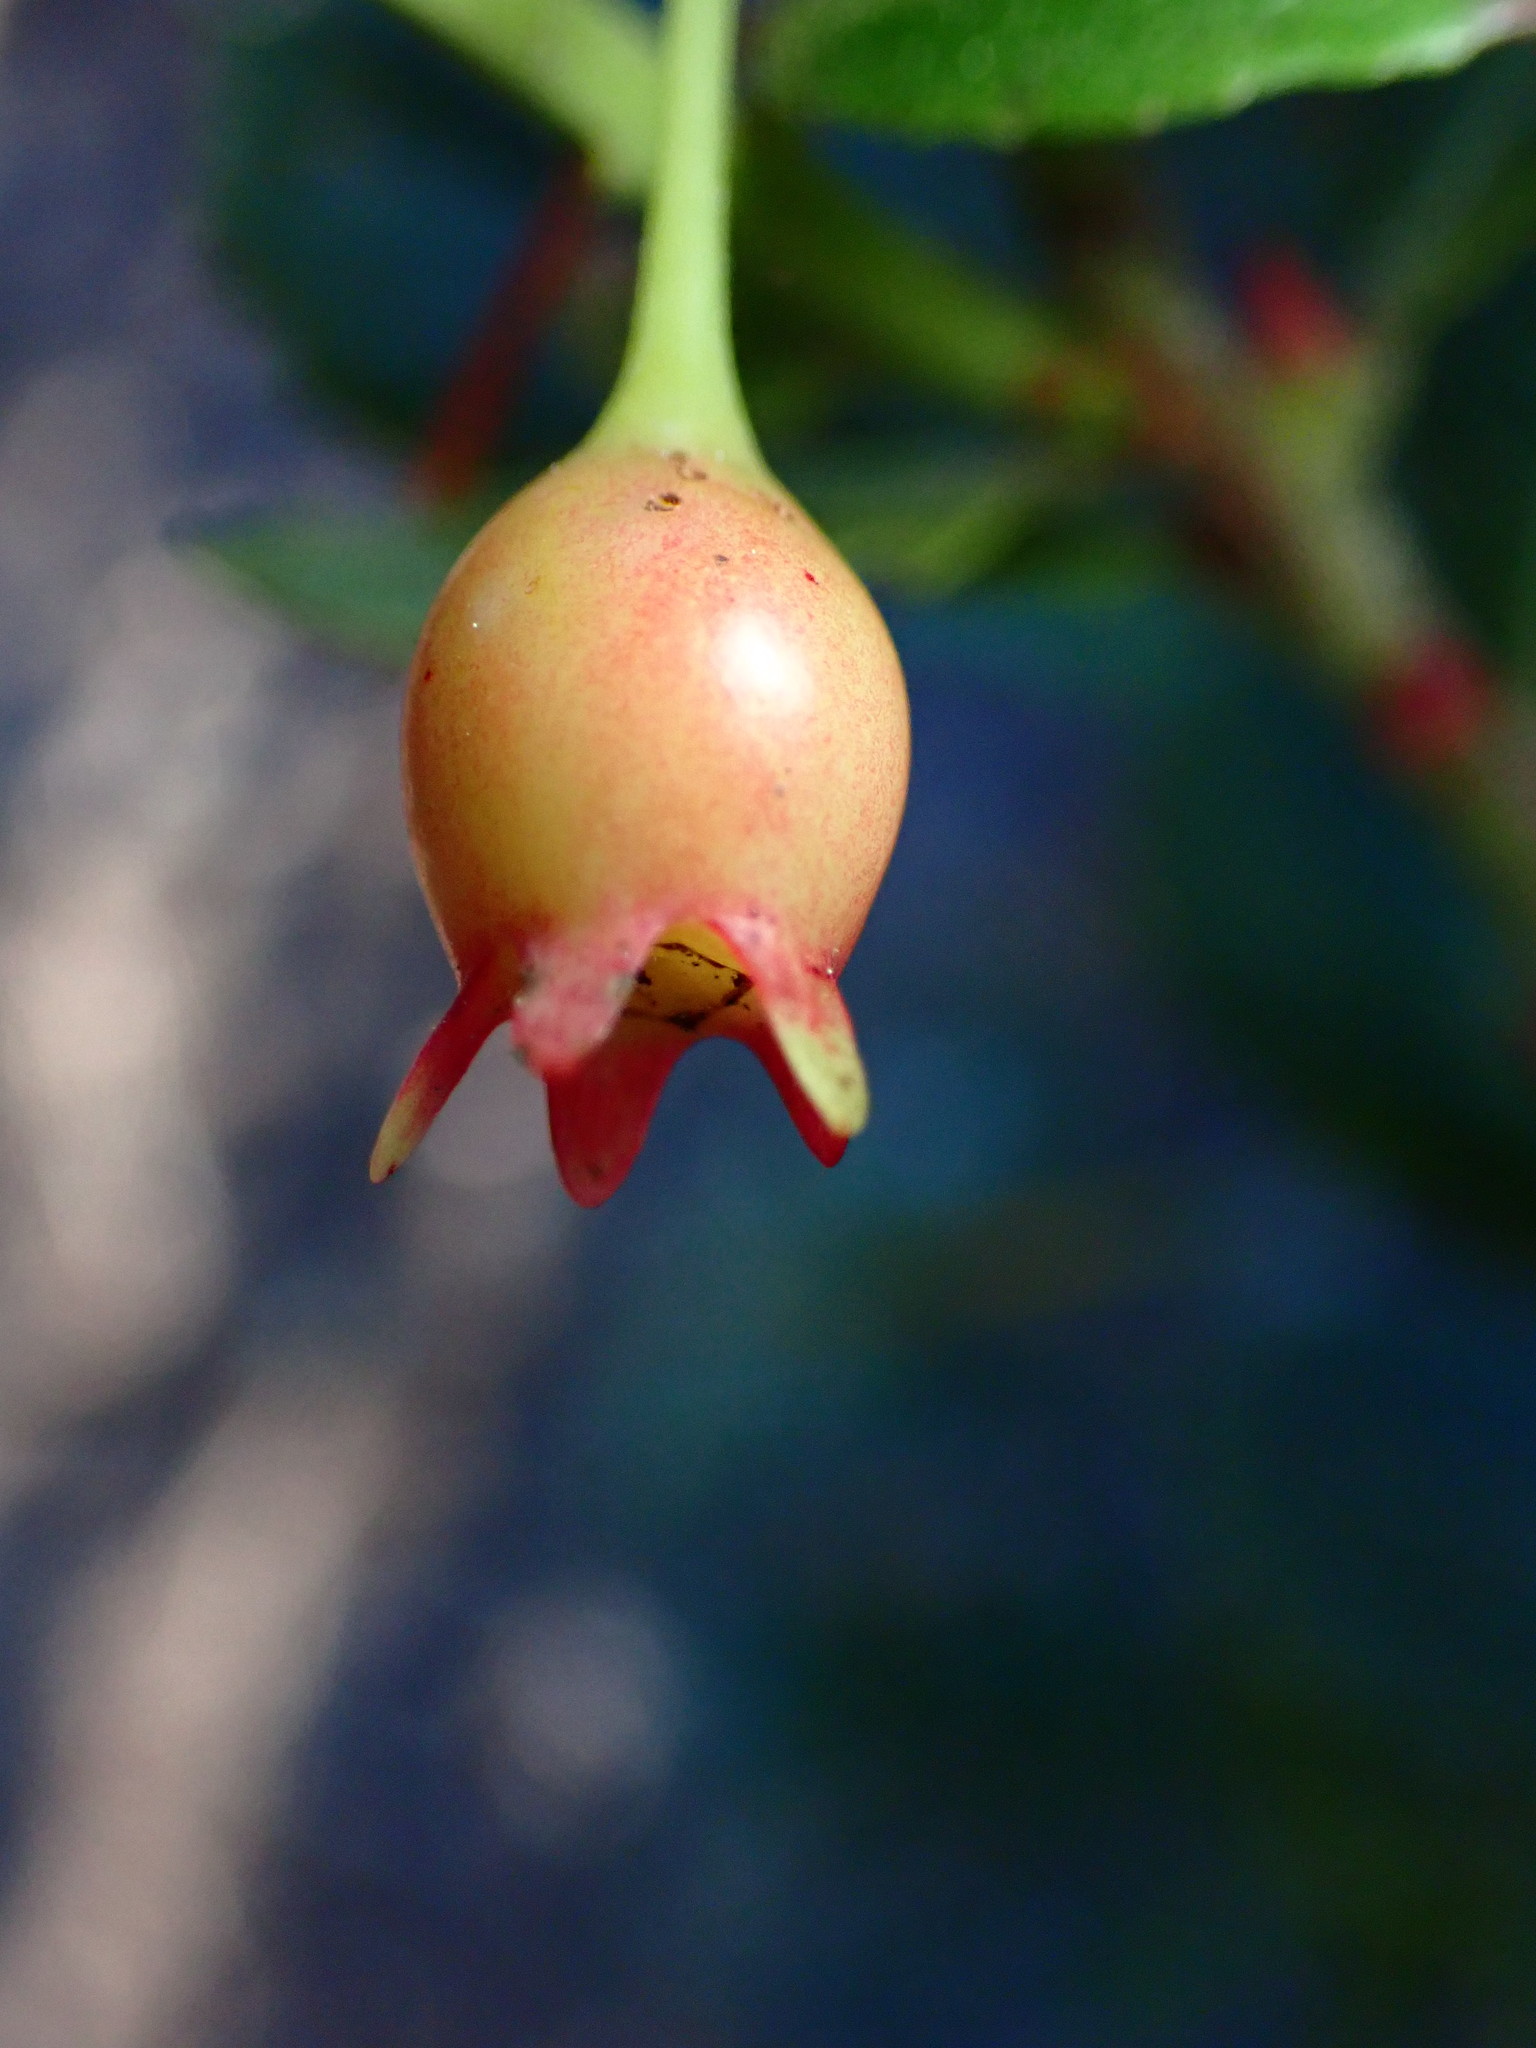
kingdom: Plantae
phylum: Tracheophyta
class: Magnoliopsida
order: Ericales
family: Ericaceae
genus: Vaccinium
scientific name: Vaccinium reticulatum
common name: Ohelo
